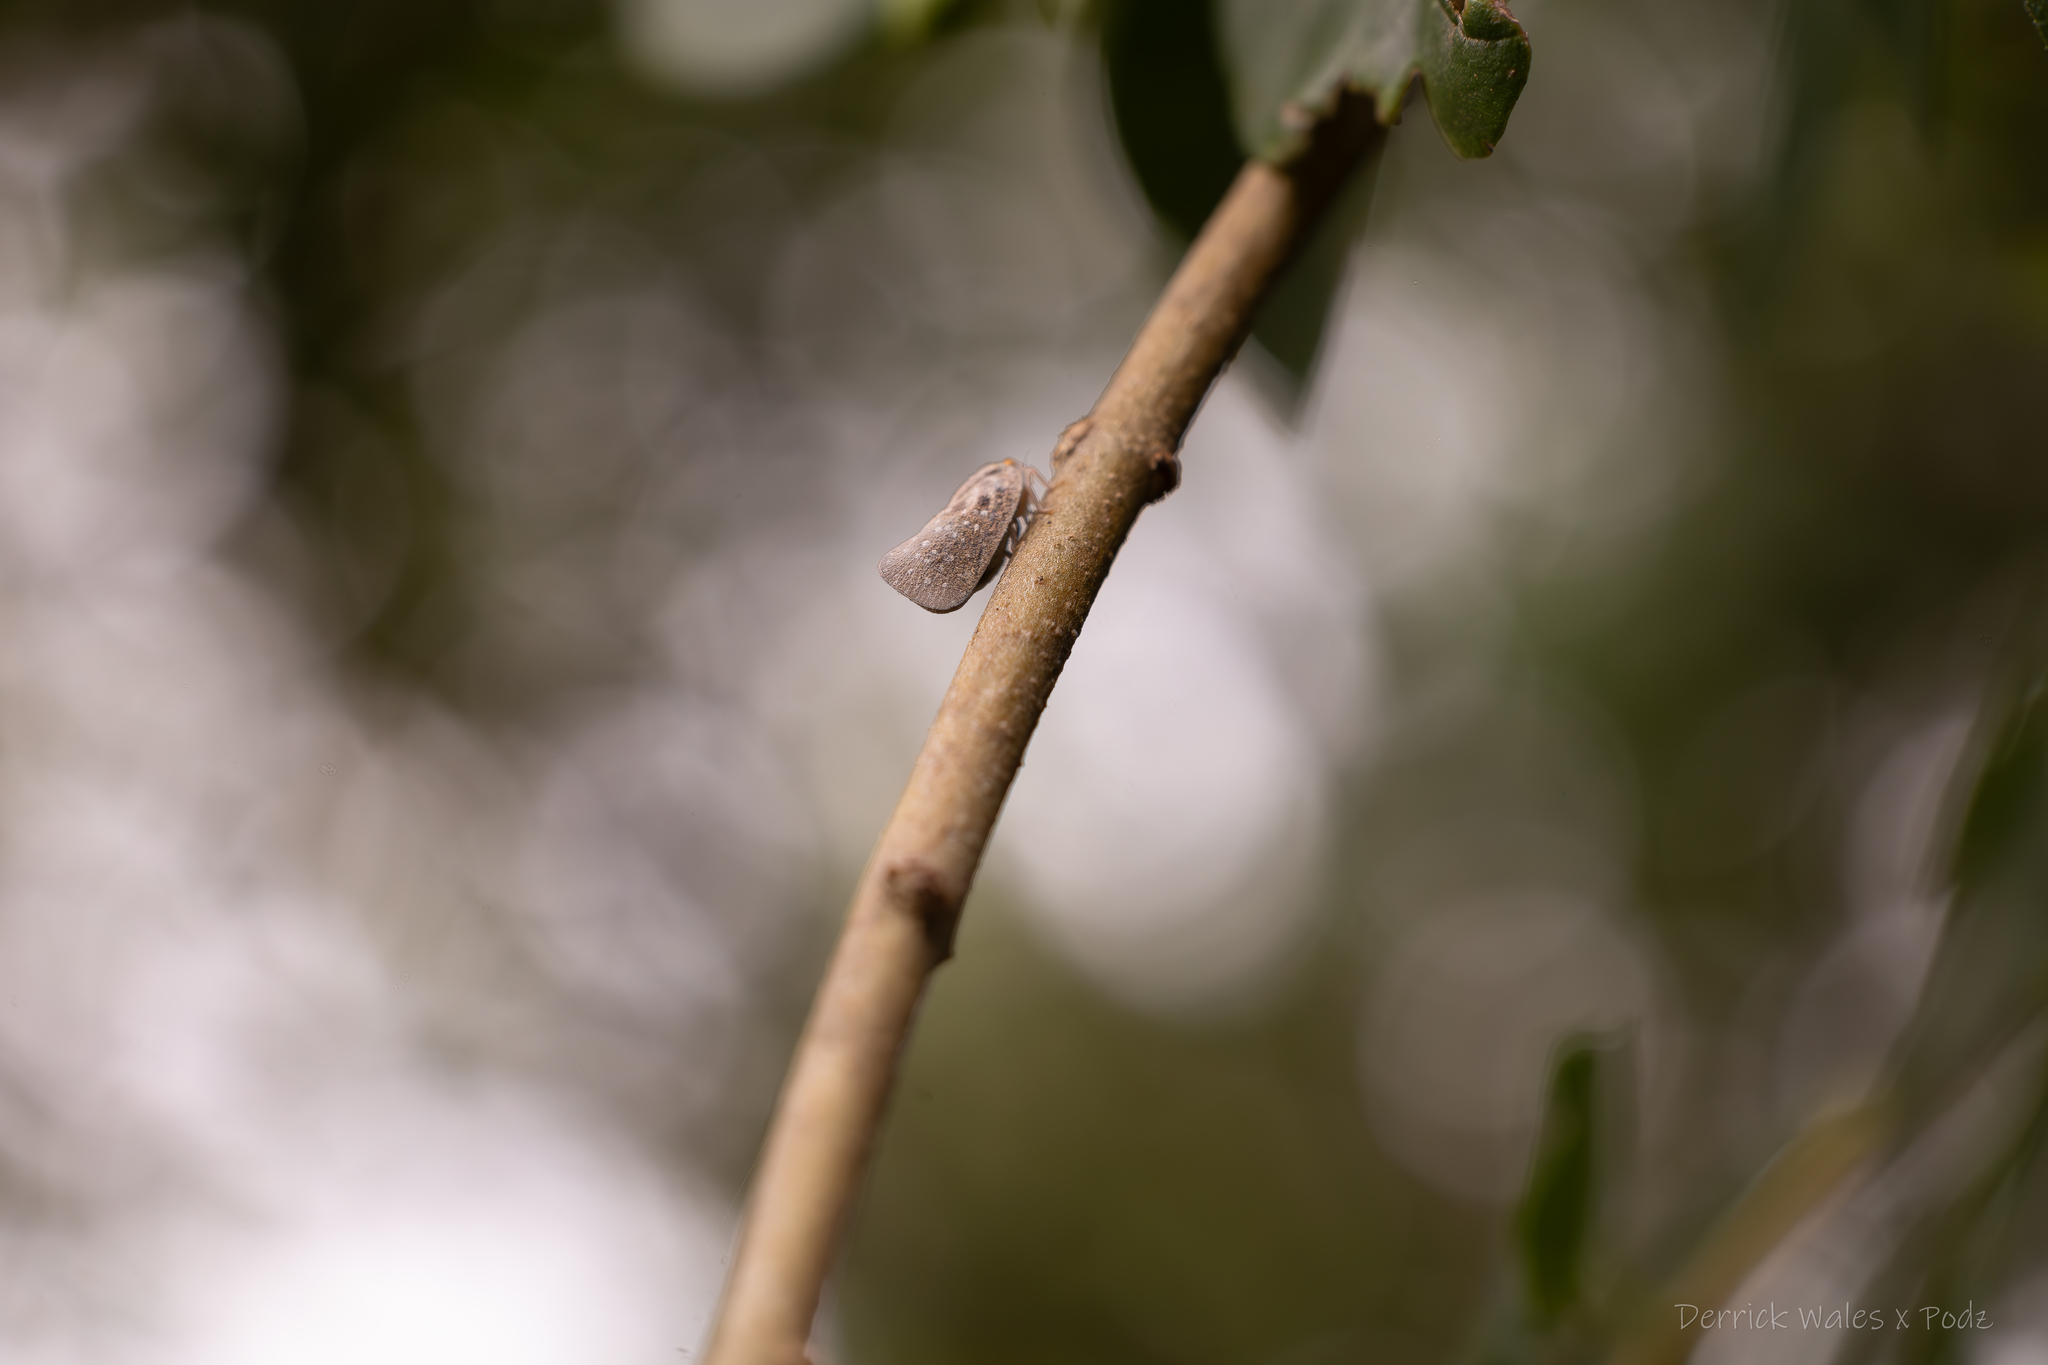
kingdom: Animalia
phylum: Arthropoda
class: Insecta
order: Hemiptera
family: Flatidae
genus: Metcalfa
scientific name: Metcalfa pruinosa
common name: Citrus flatid planthopper
